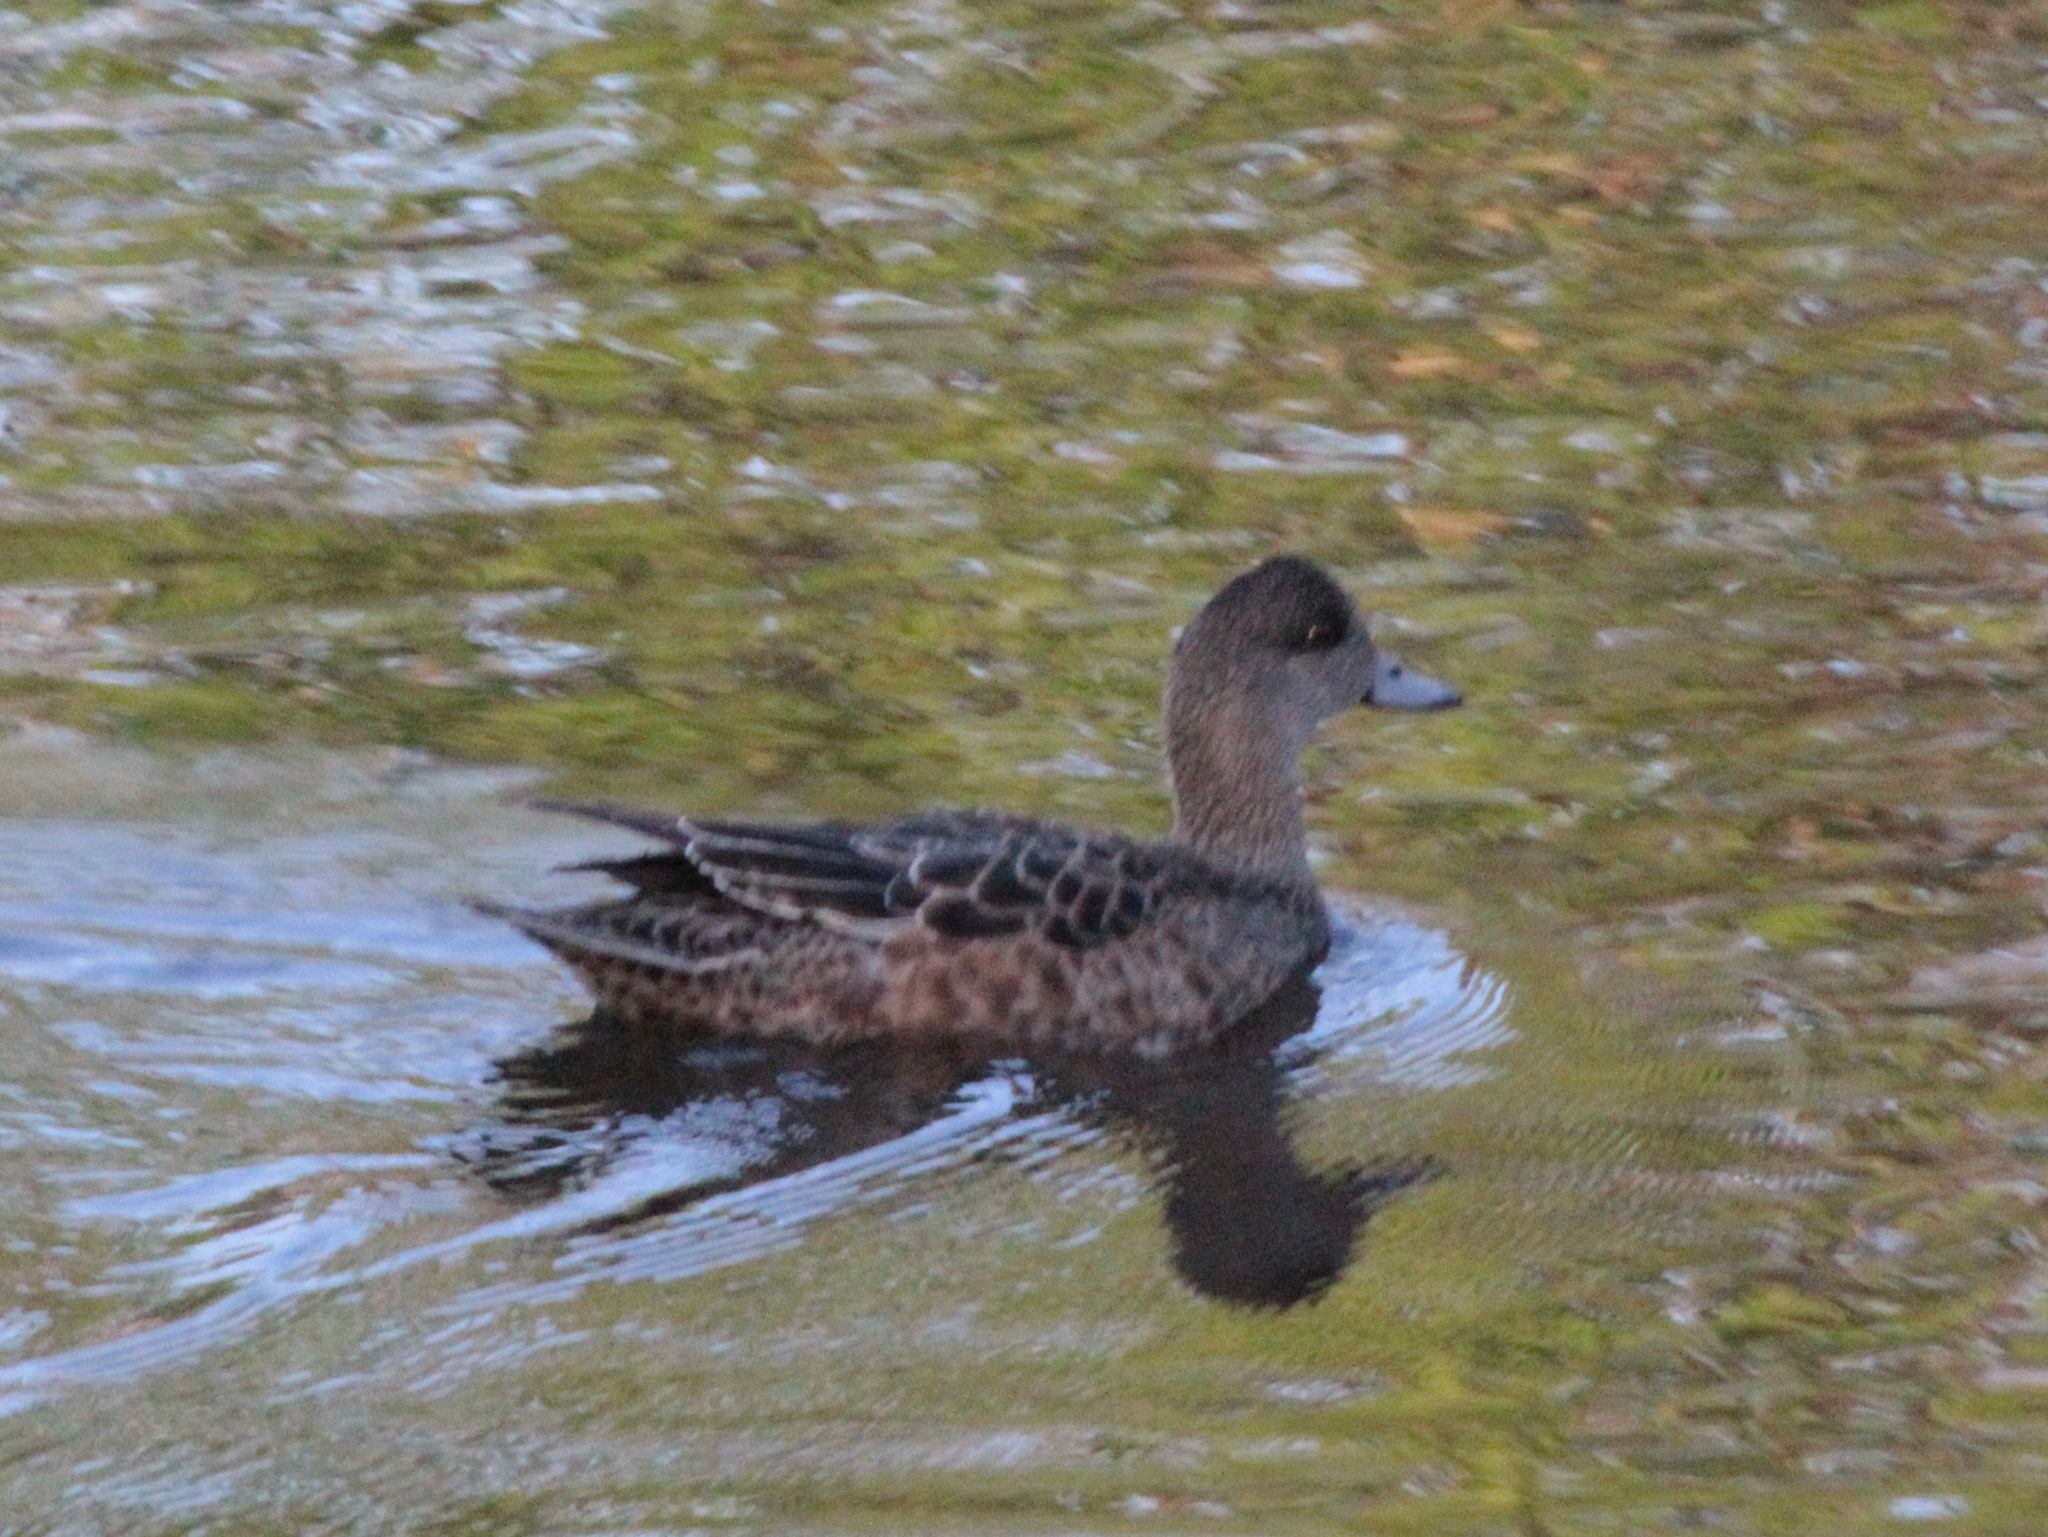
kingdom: Animalia
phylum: Chordata
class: Aves
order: Anseriformes
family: Anatidae
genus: Mareca
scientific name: Mareca americana
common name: American wigeon
